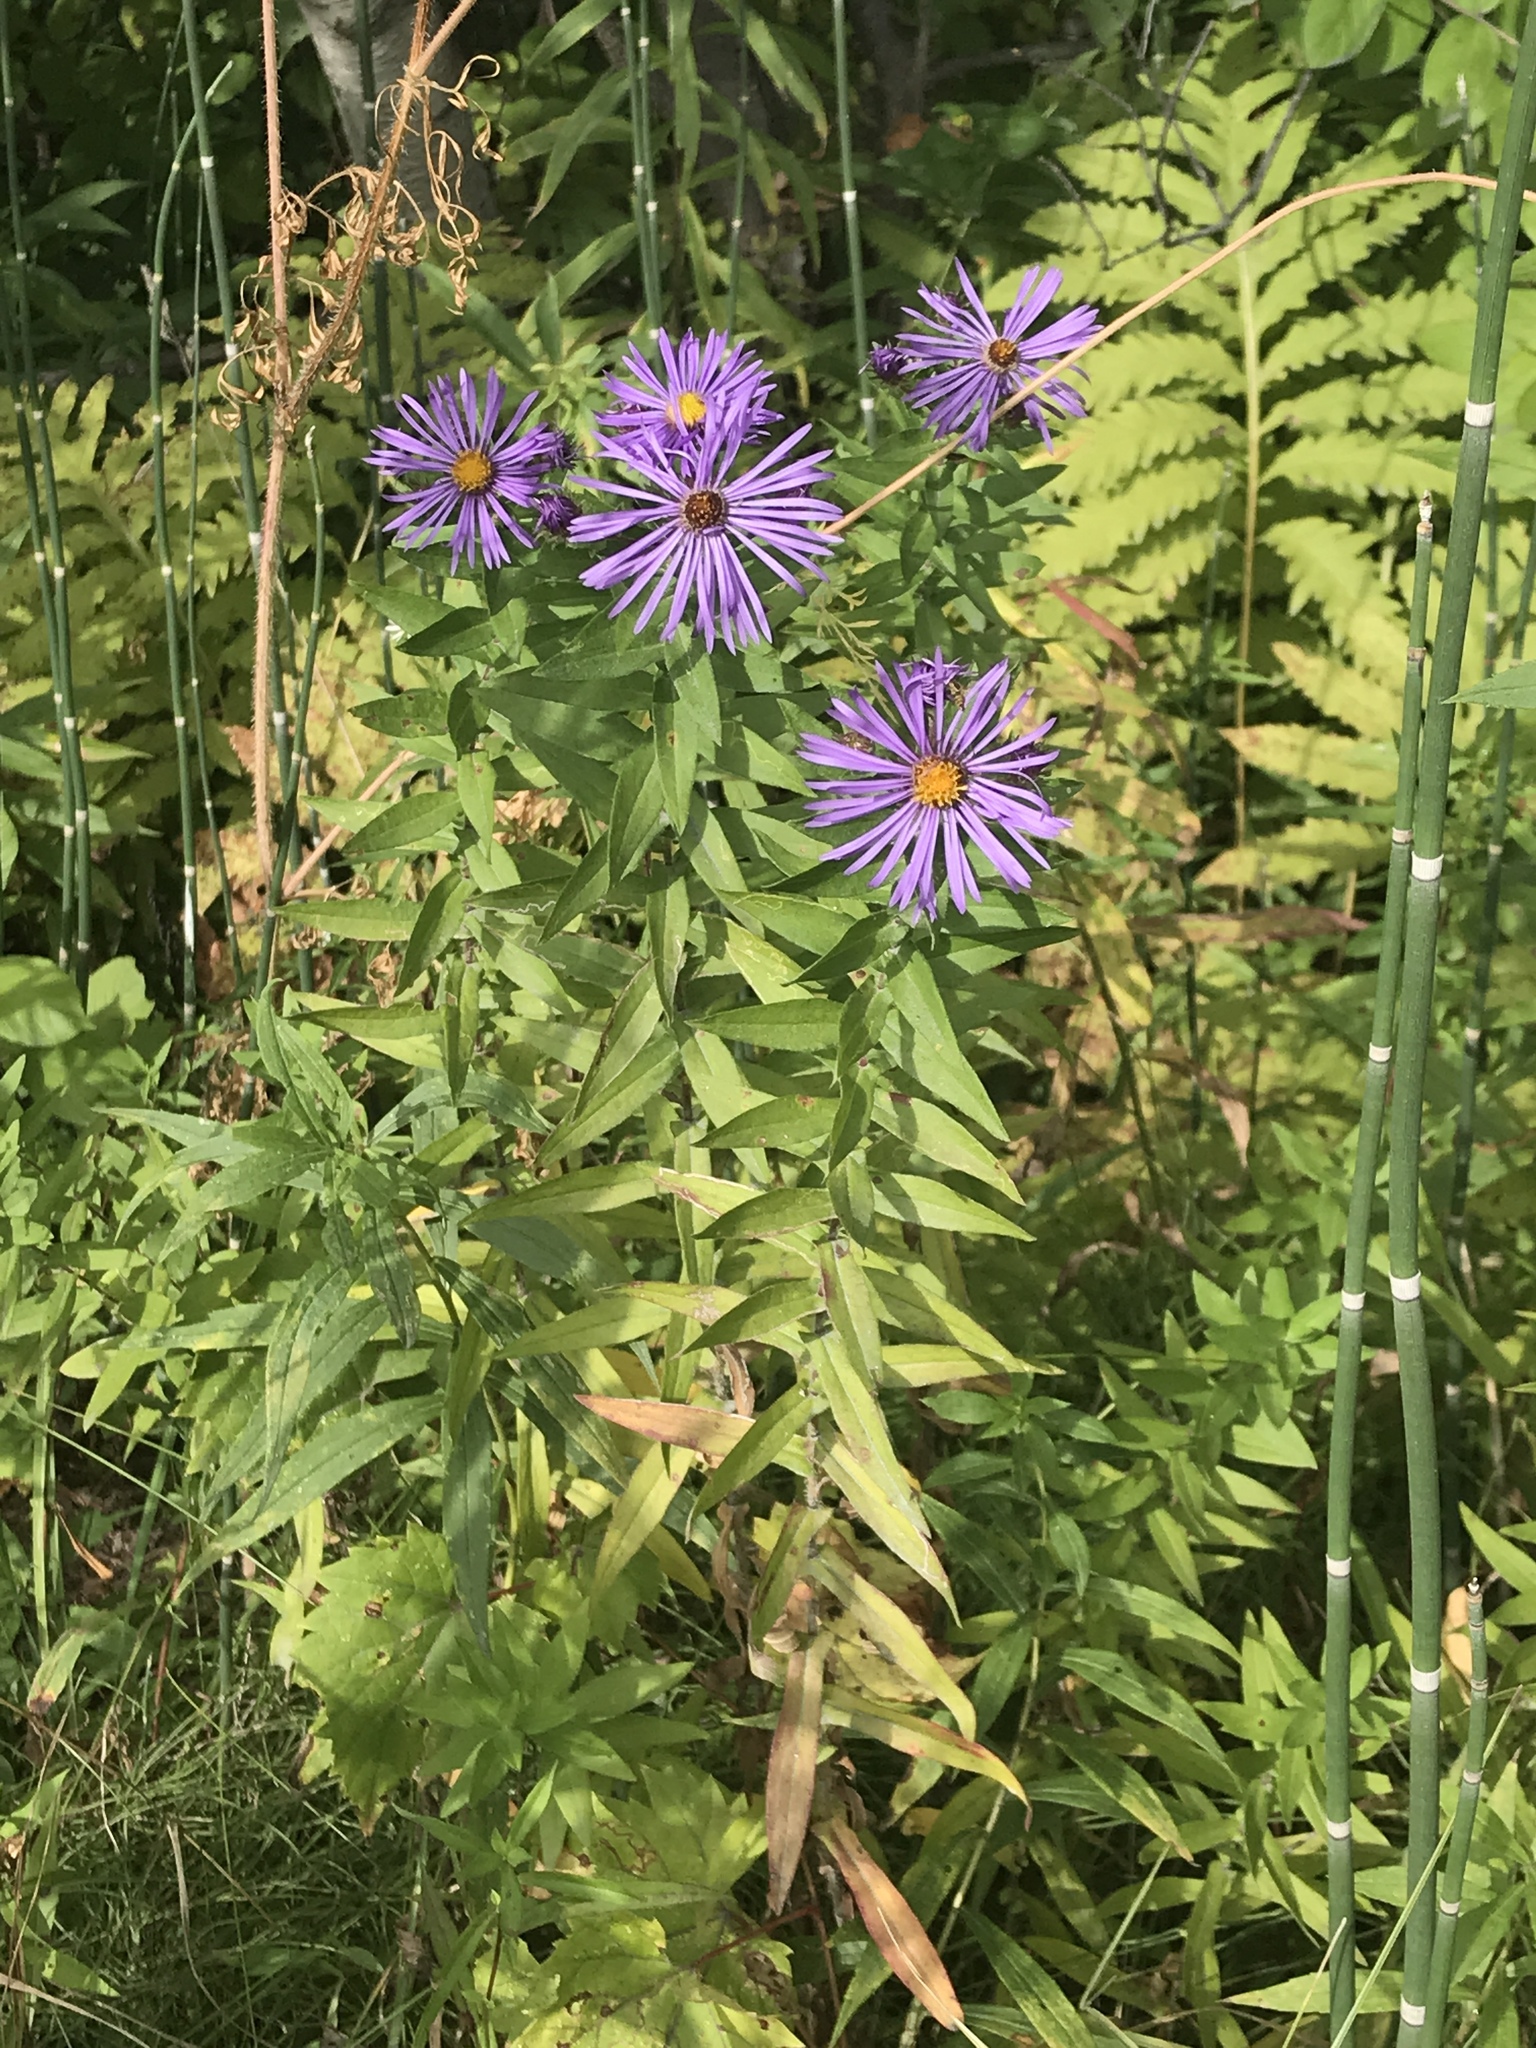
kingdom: Plantae
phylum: Tracheophyta
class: Magnoliopsida
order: Asterales
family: Asteraceae
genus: Symphyotrichum
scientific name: Symphyotrichum novae-angliae
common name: Michaelmas daisy
